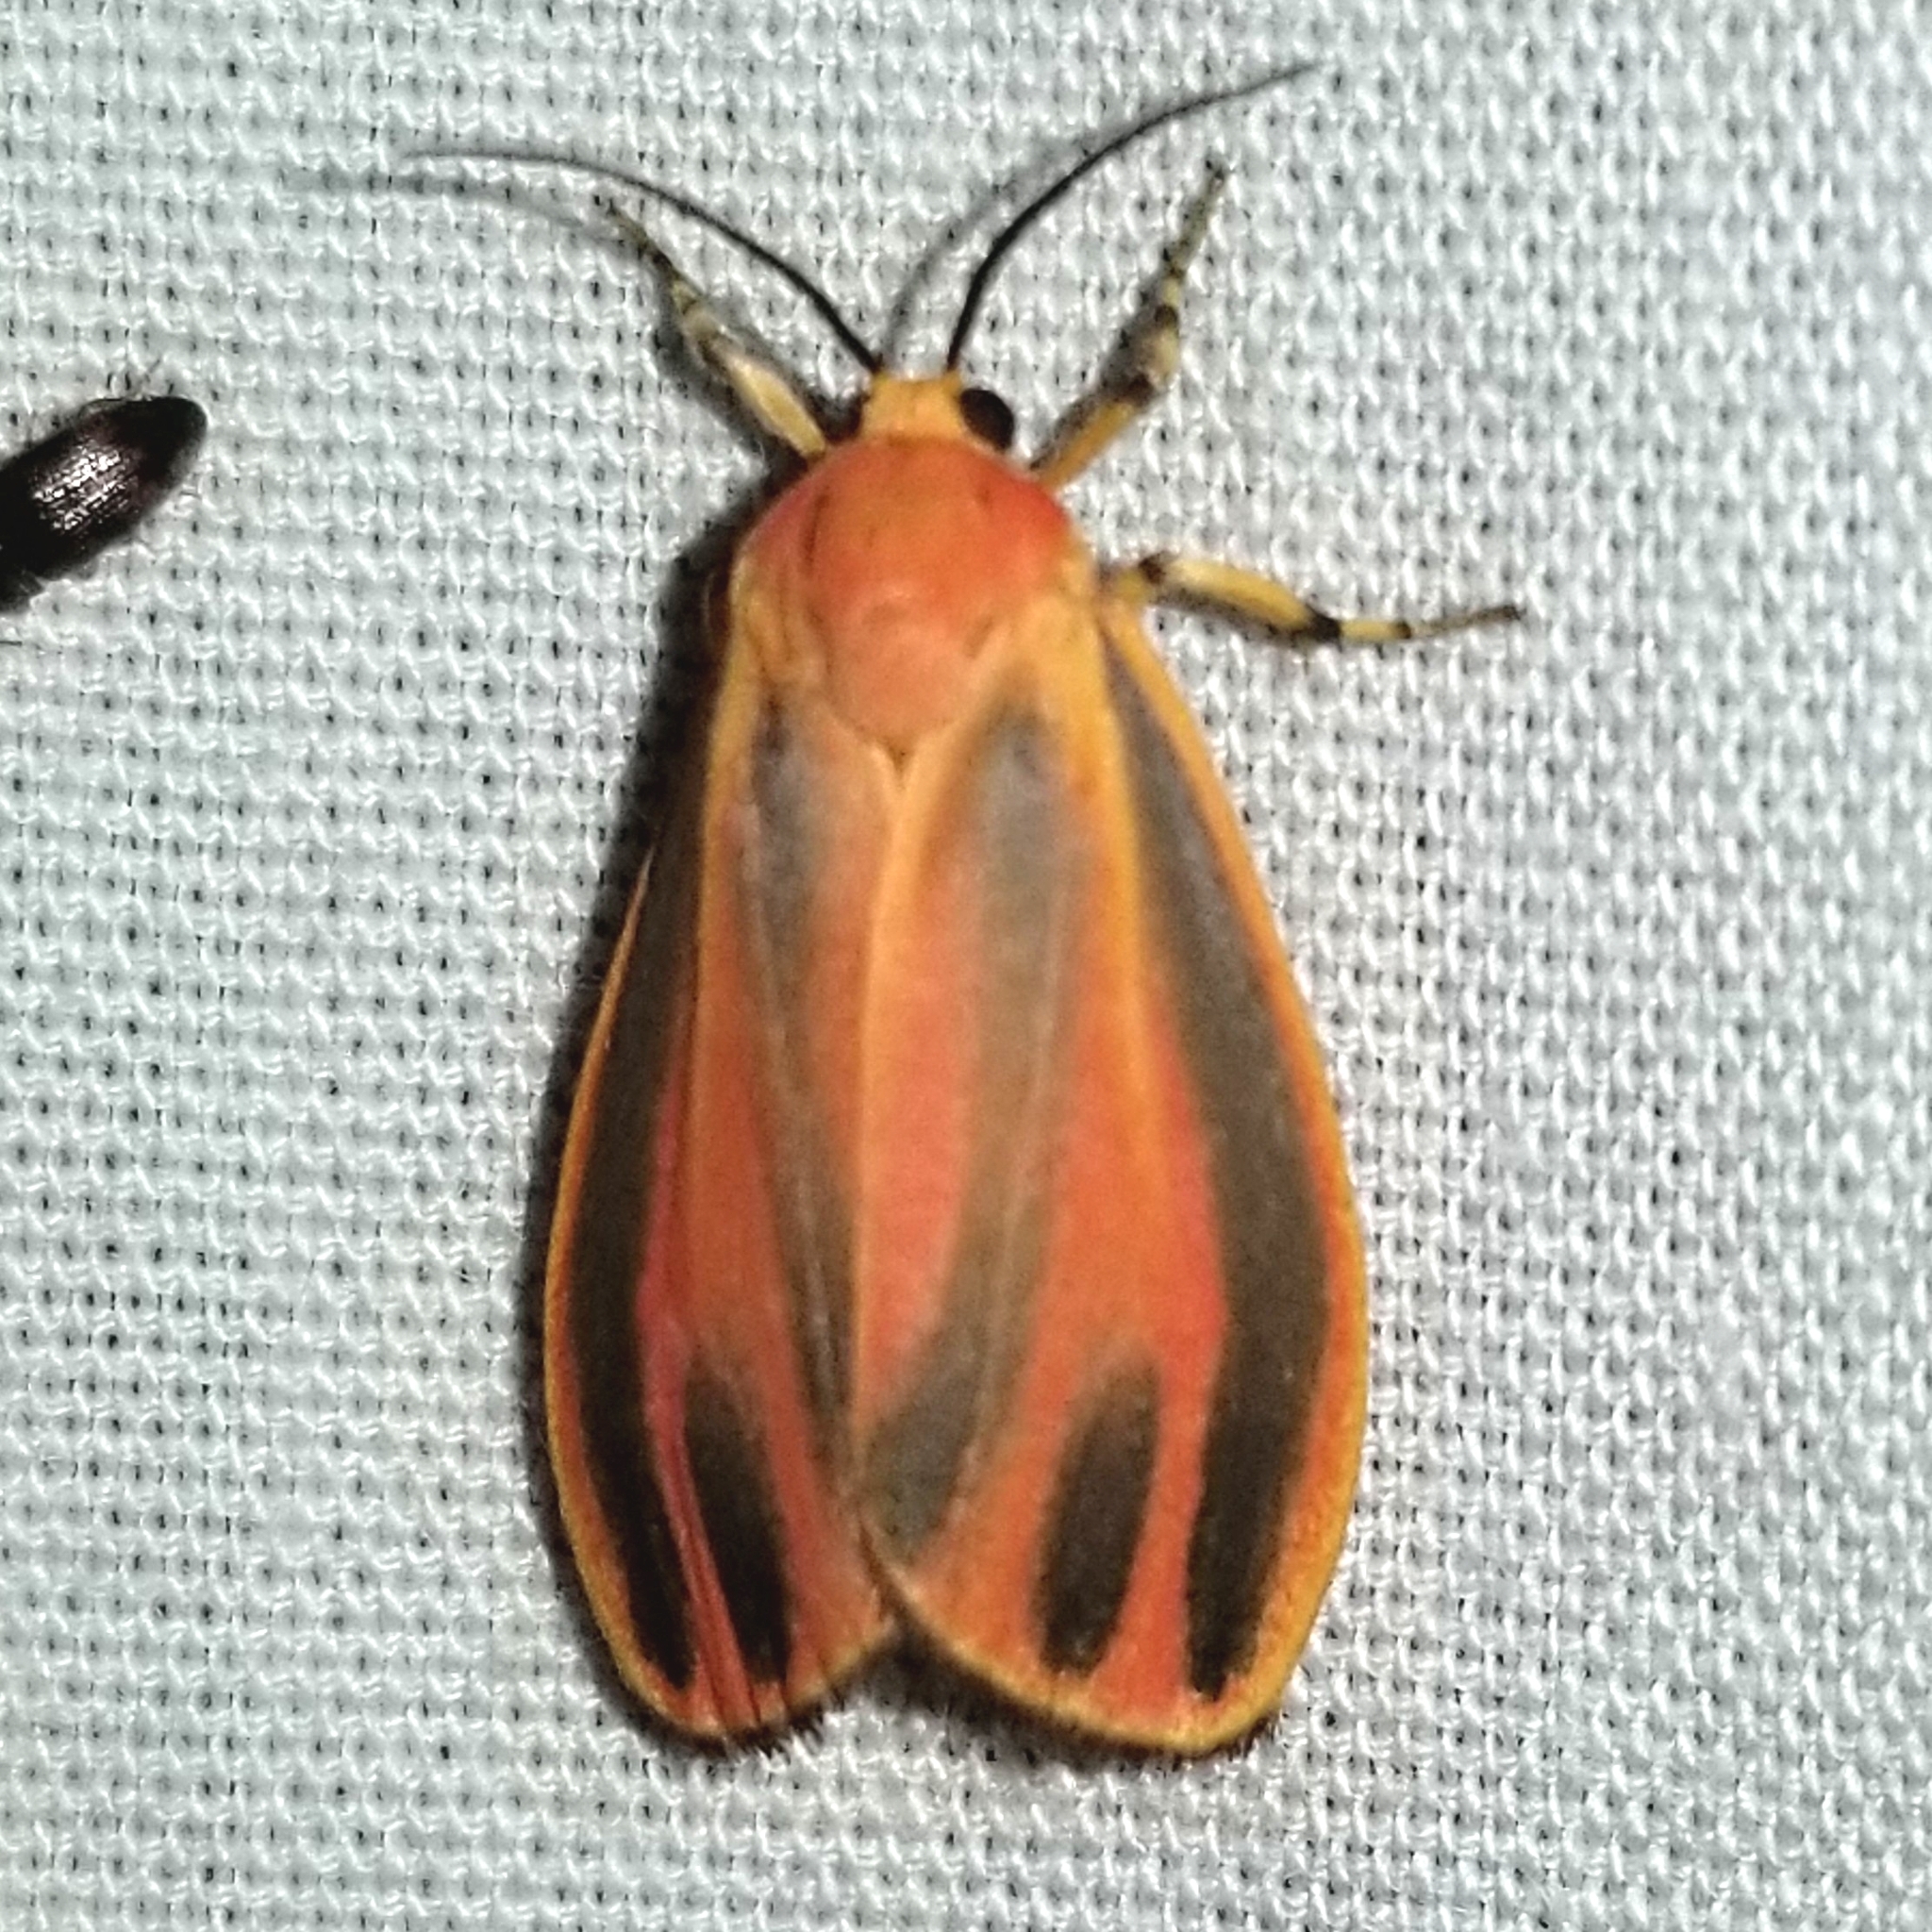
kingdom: Animalia
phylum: Arthropoda
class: Insecta
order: Lepidoptera
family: Erebidae
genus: Hypoprepia
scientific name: Hypoprepia fucosa
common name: Painted lichen moth
